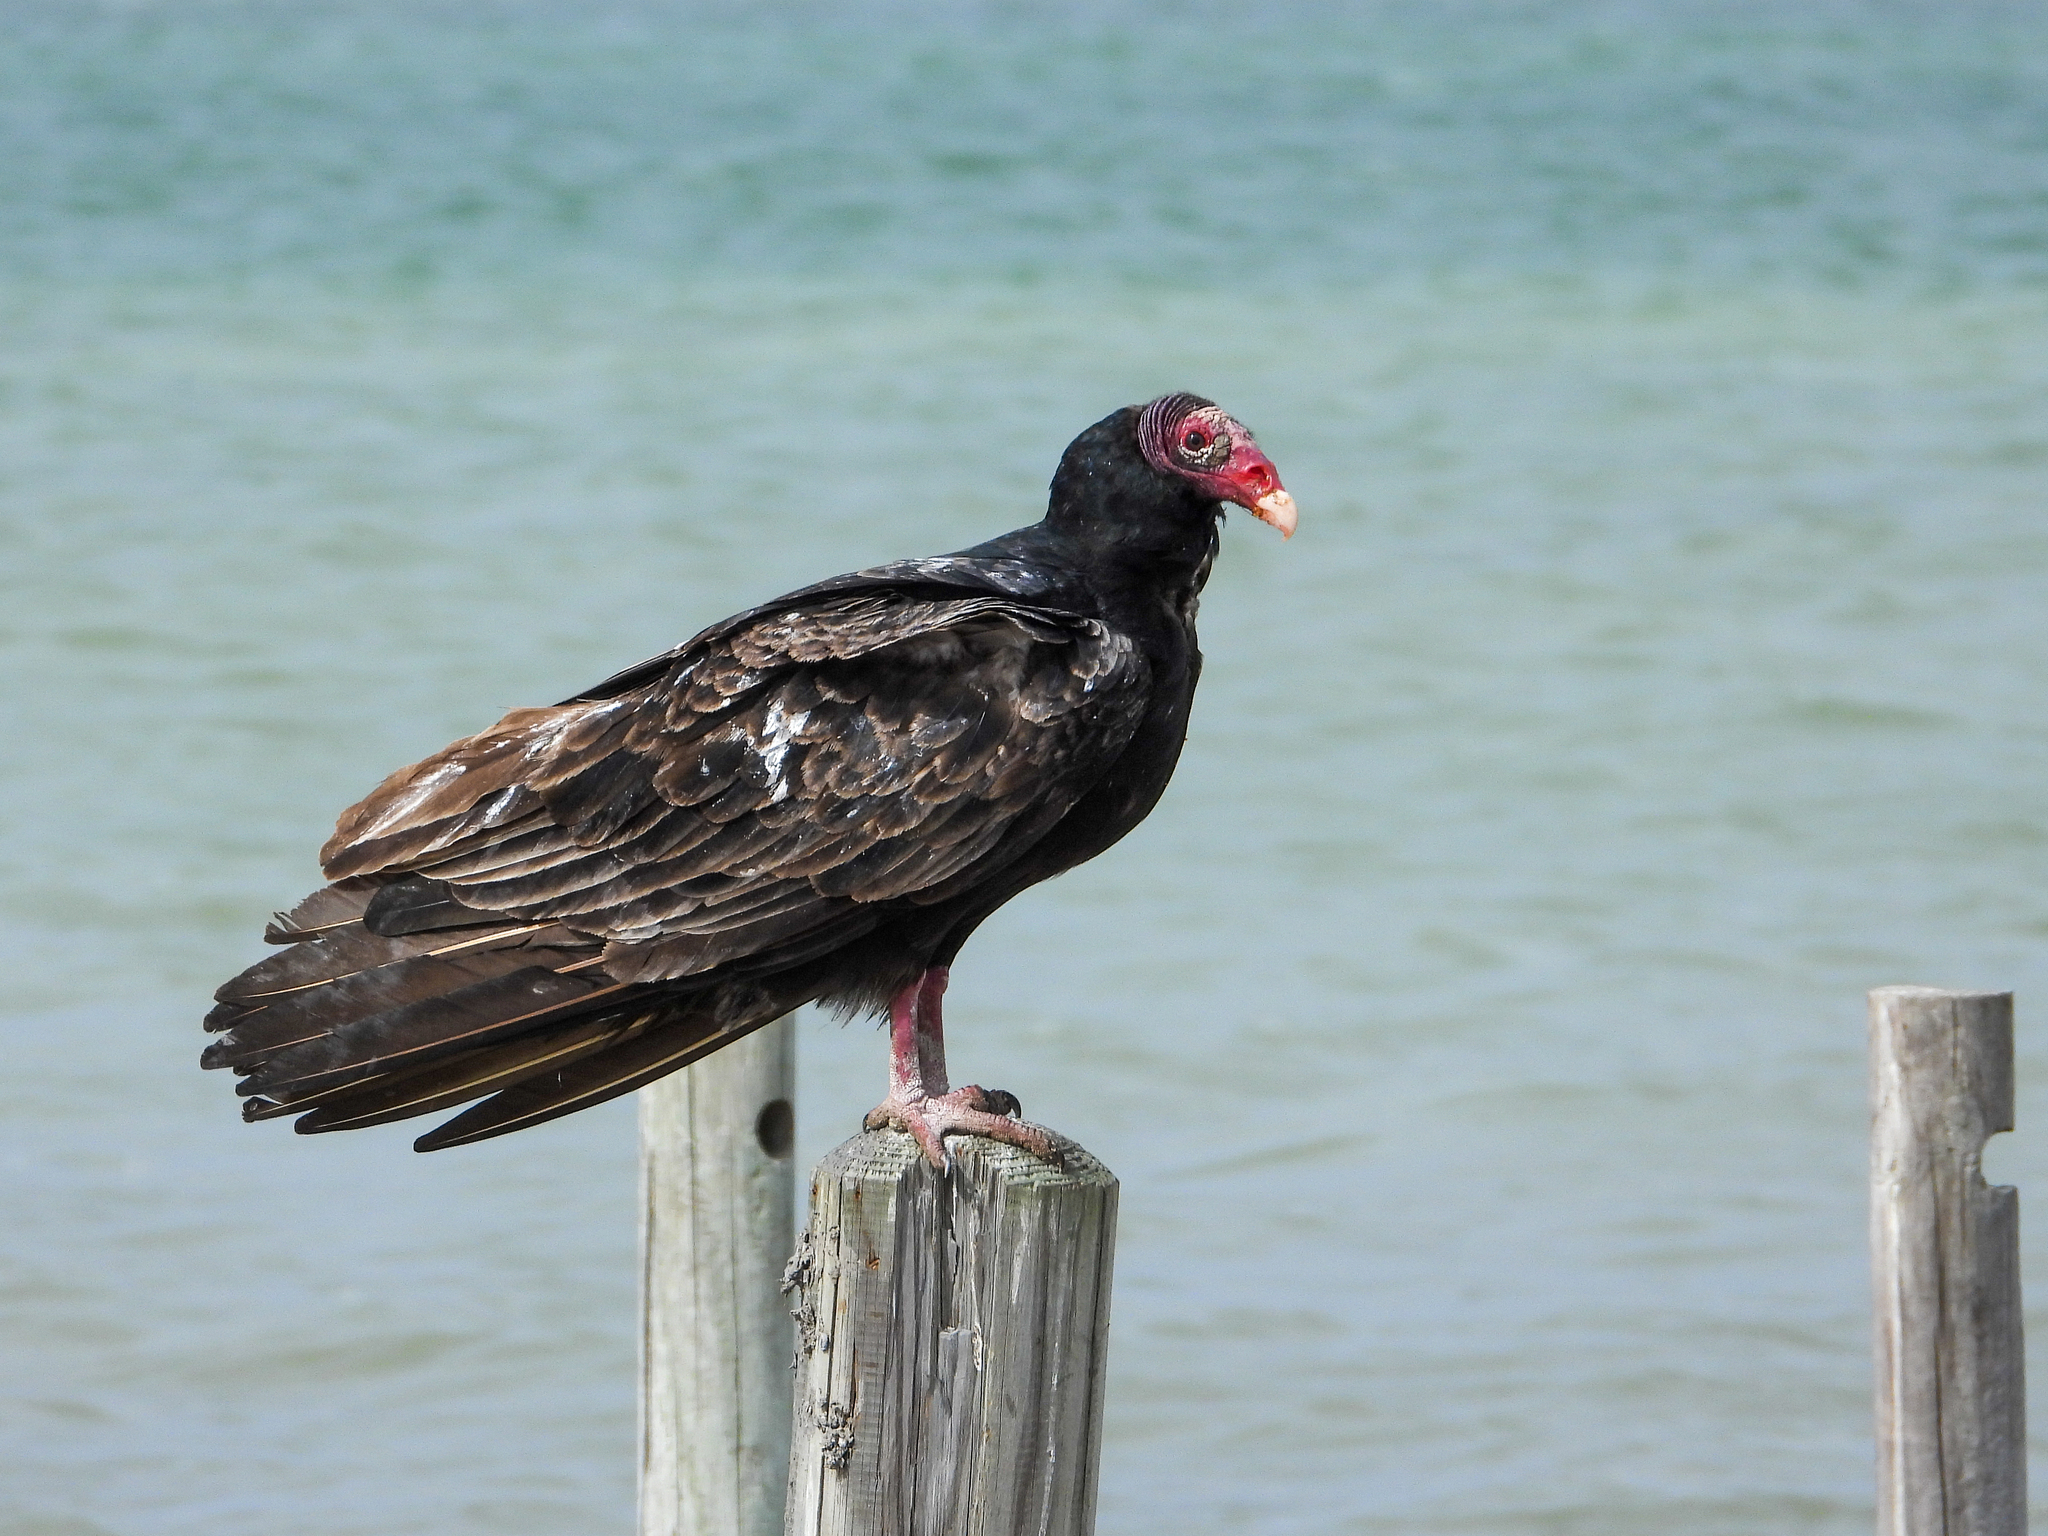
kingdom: Animalia
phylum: Chordata
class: Aves
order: Accipitriformes
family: Cathartidae
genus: Cathartes
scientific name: Cathartes aura
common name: Turkey vulture
